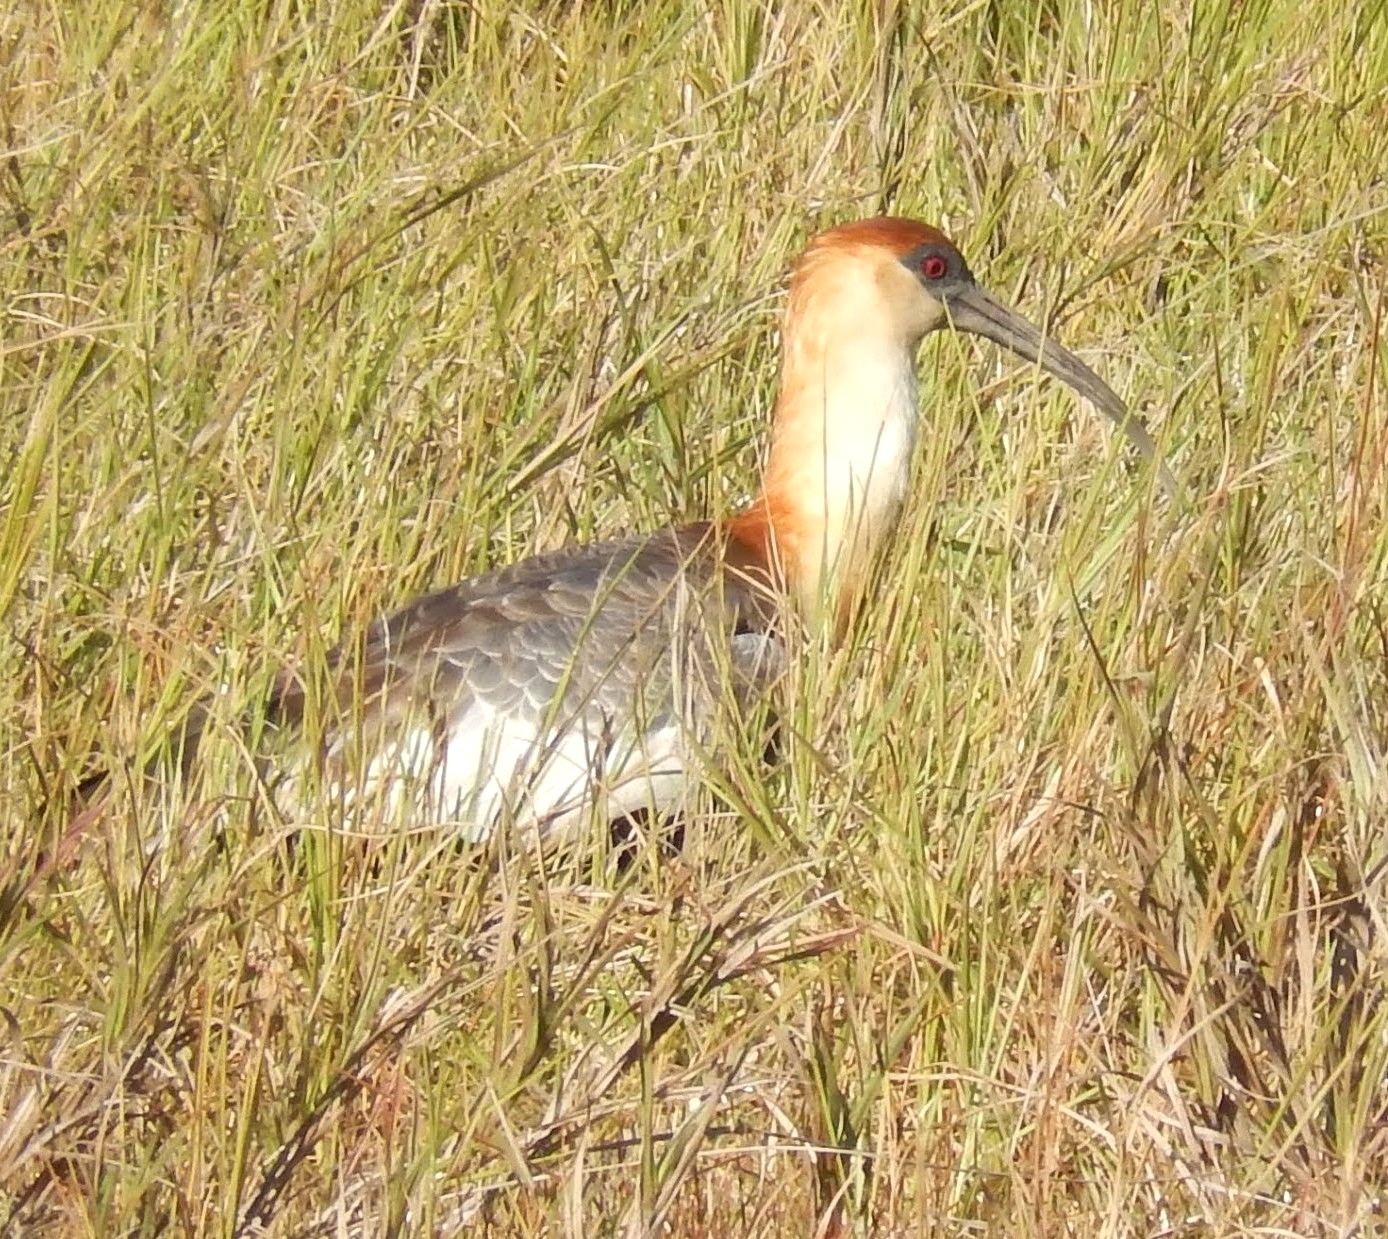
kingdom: Animalia
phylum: Chordata
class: Aves
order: Pelecaniformes
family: Threskiornithidae
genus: Theristicus
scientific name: Theristicus caudatus
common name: Buff-necked ibis
